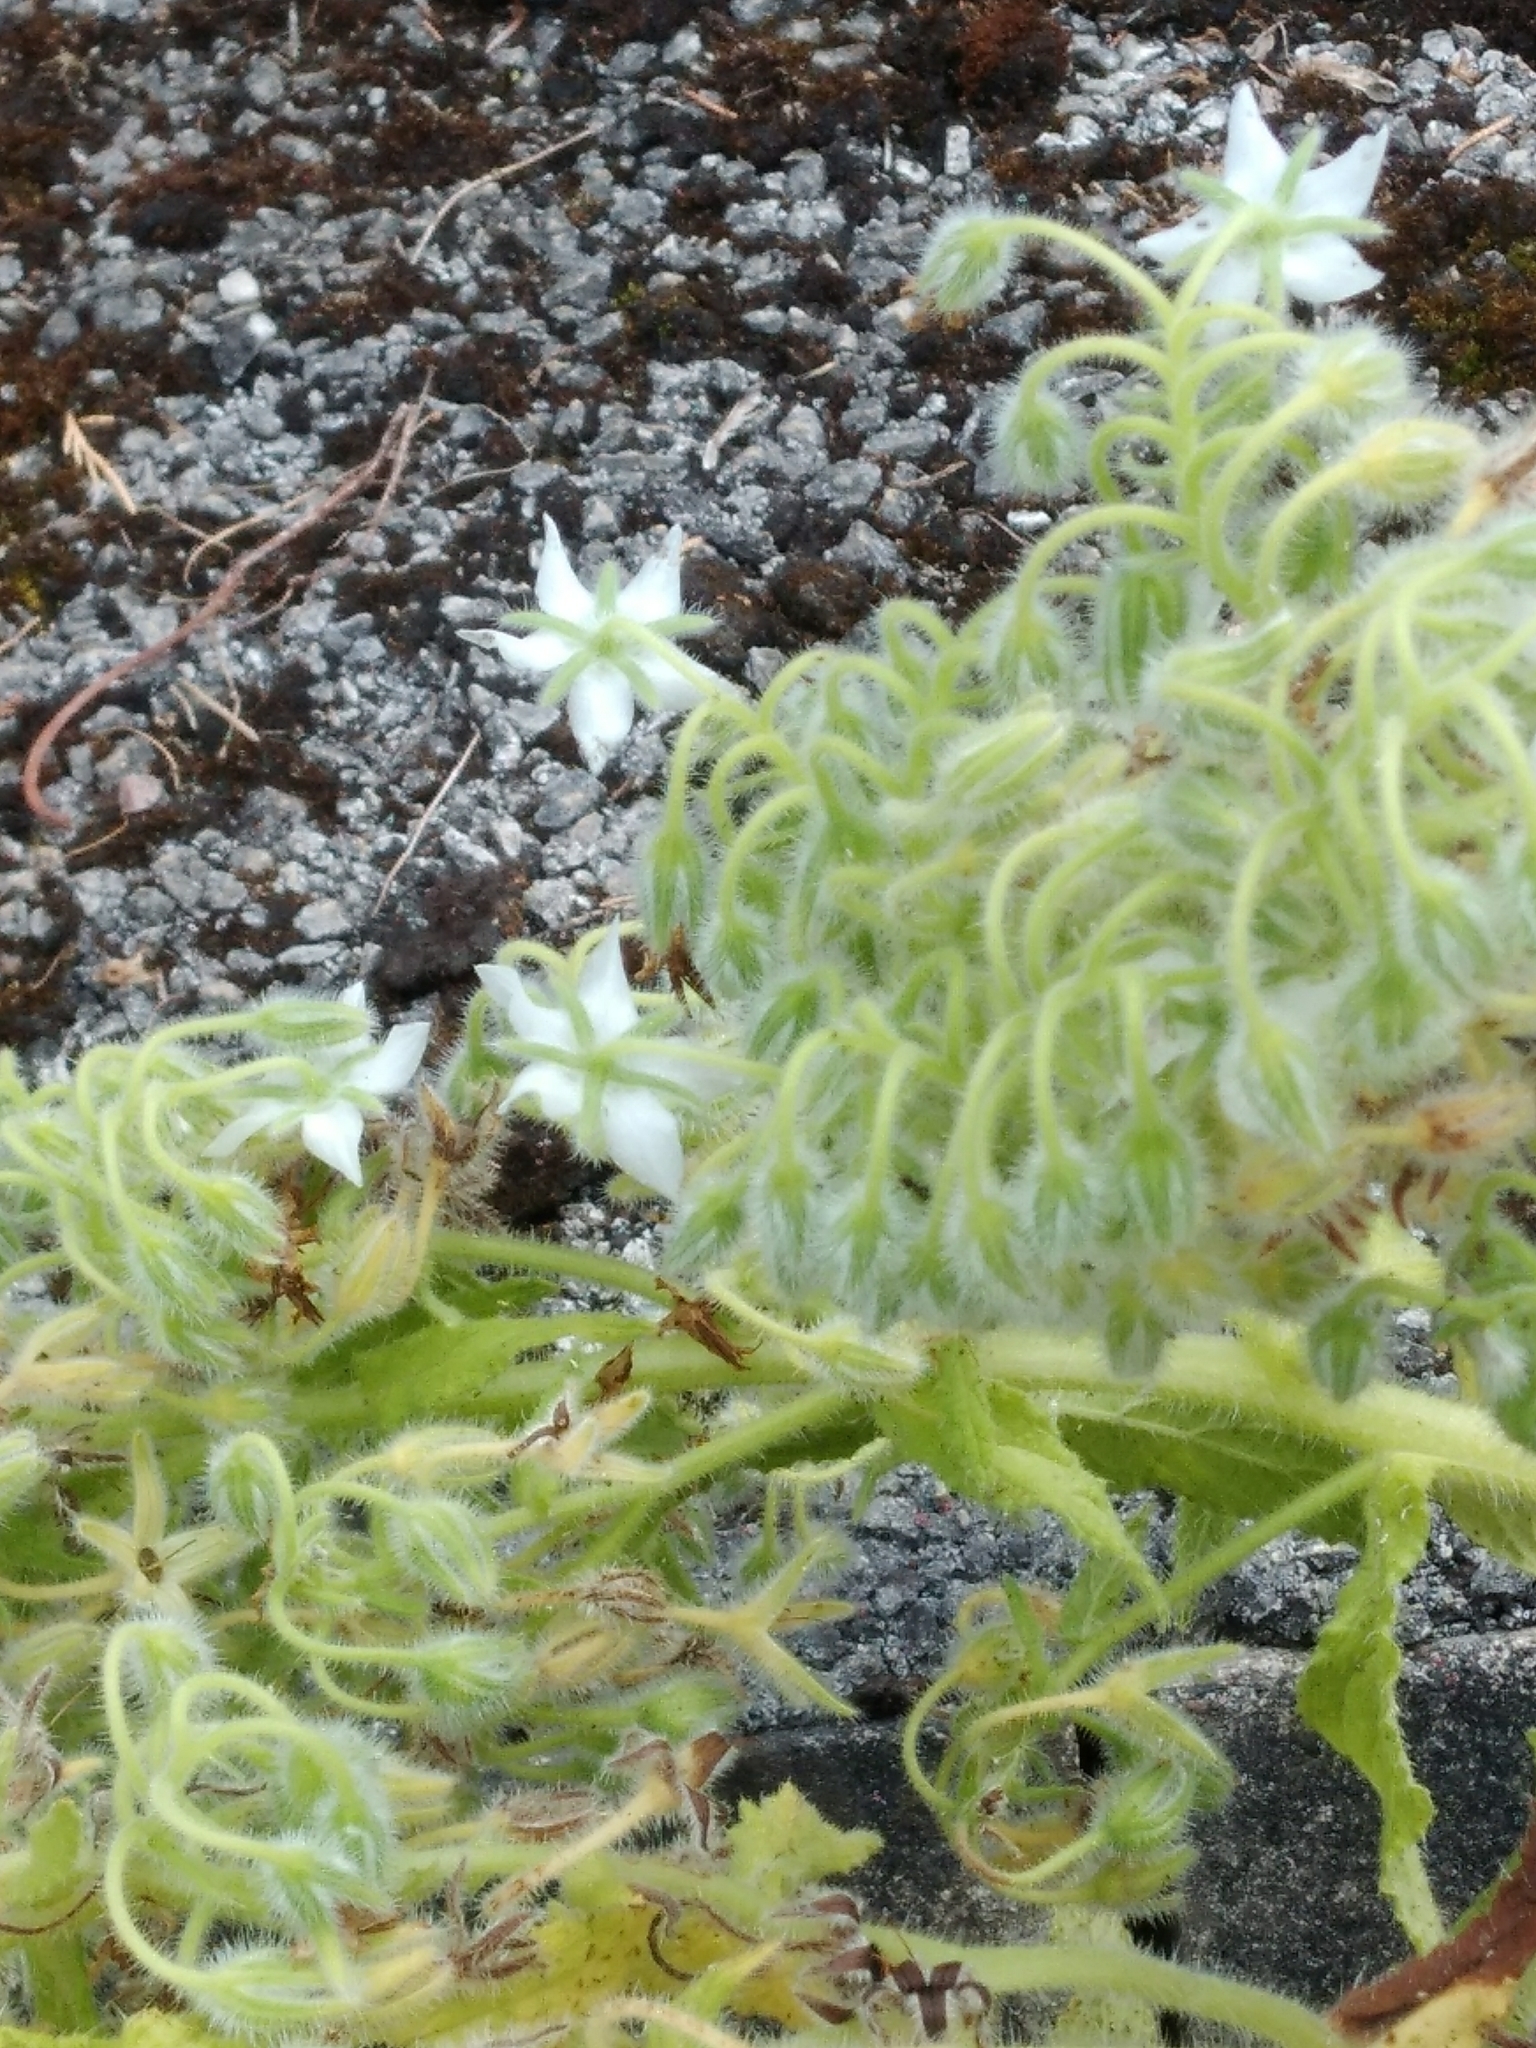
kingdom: Plantae
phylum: Tracheophyta
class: Magnoliopsida
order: Boraginales
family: Boraginaceae
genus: Borago
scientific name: Borago officinalis
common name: Borage
